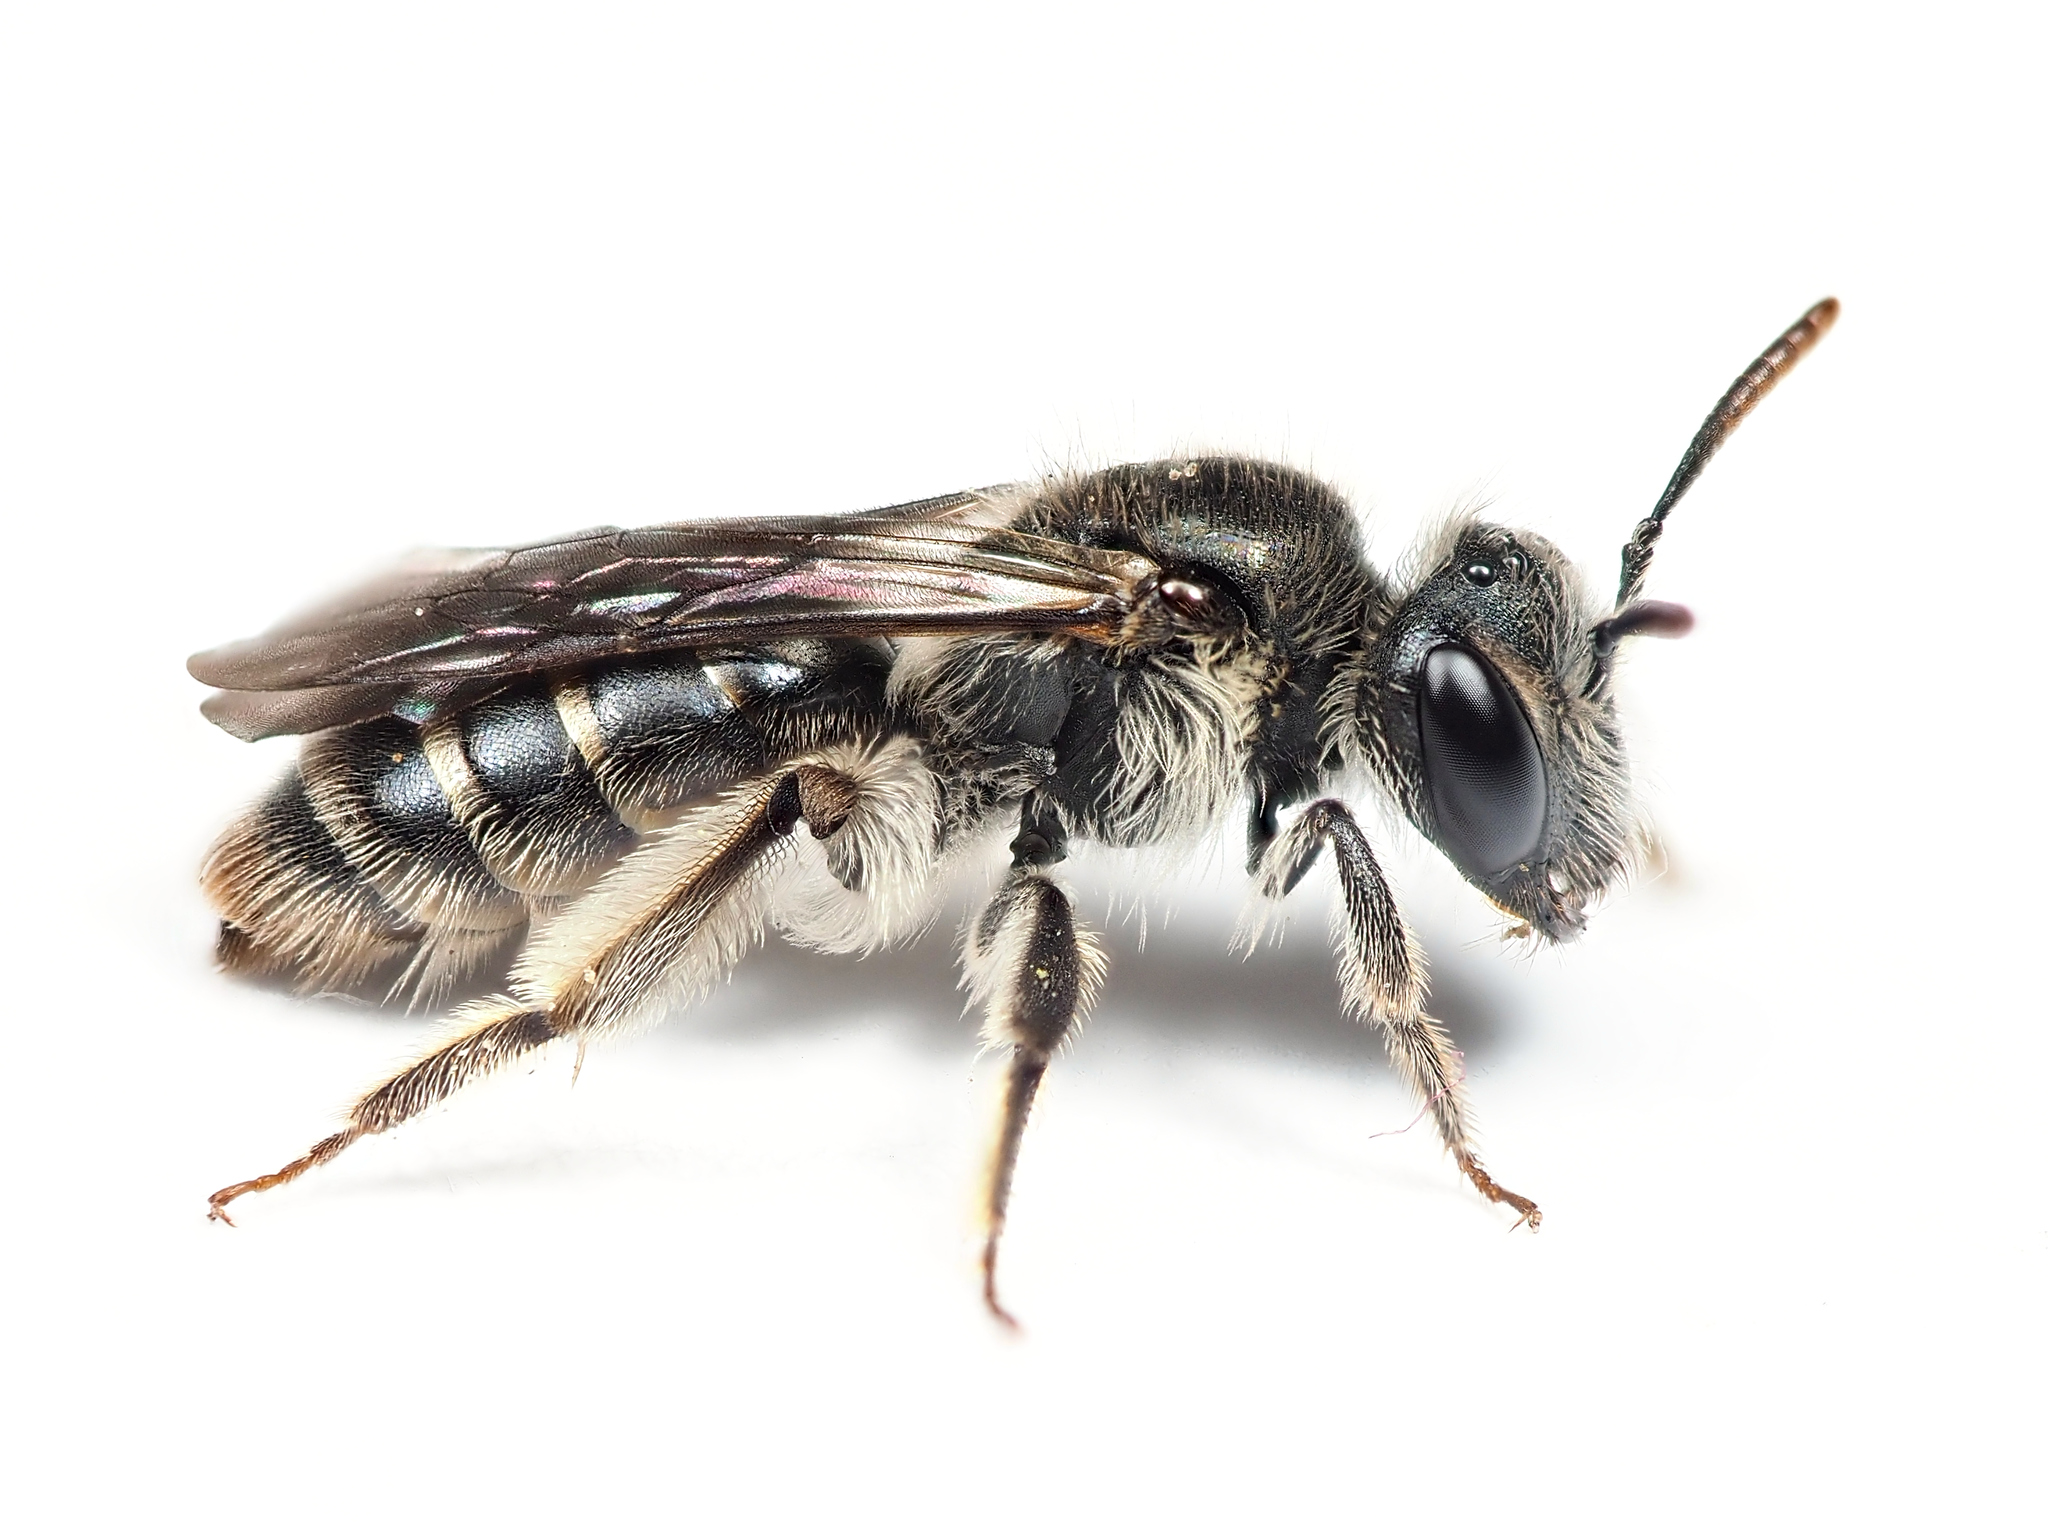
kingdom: Animalia
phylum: Arthropoda
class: Insecta
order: Hymenoptera
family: Andrenidae
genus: Andrena
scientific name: Andrena viridescens
